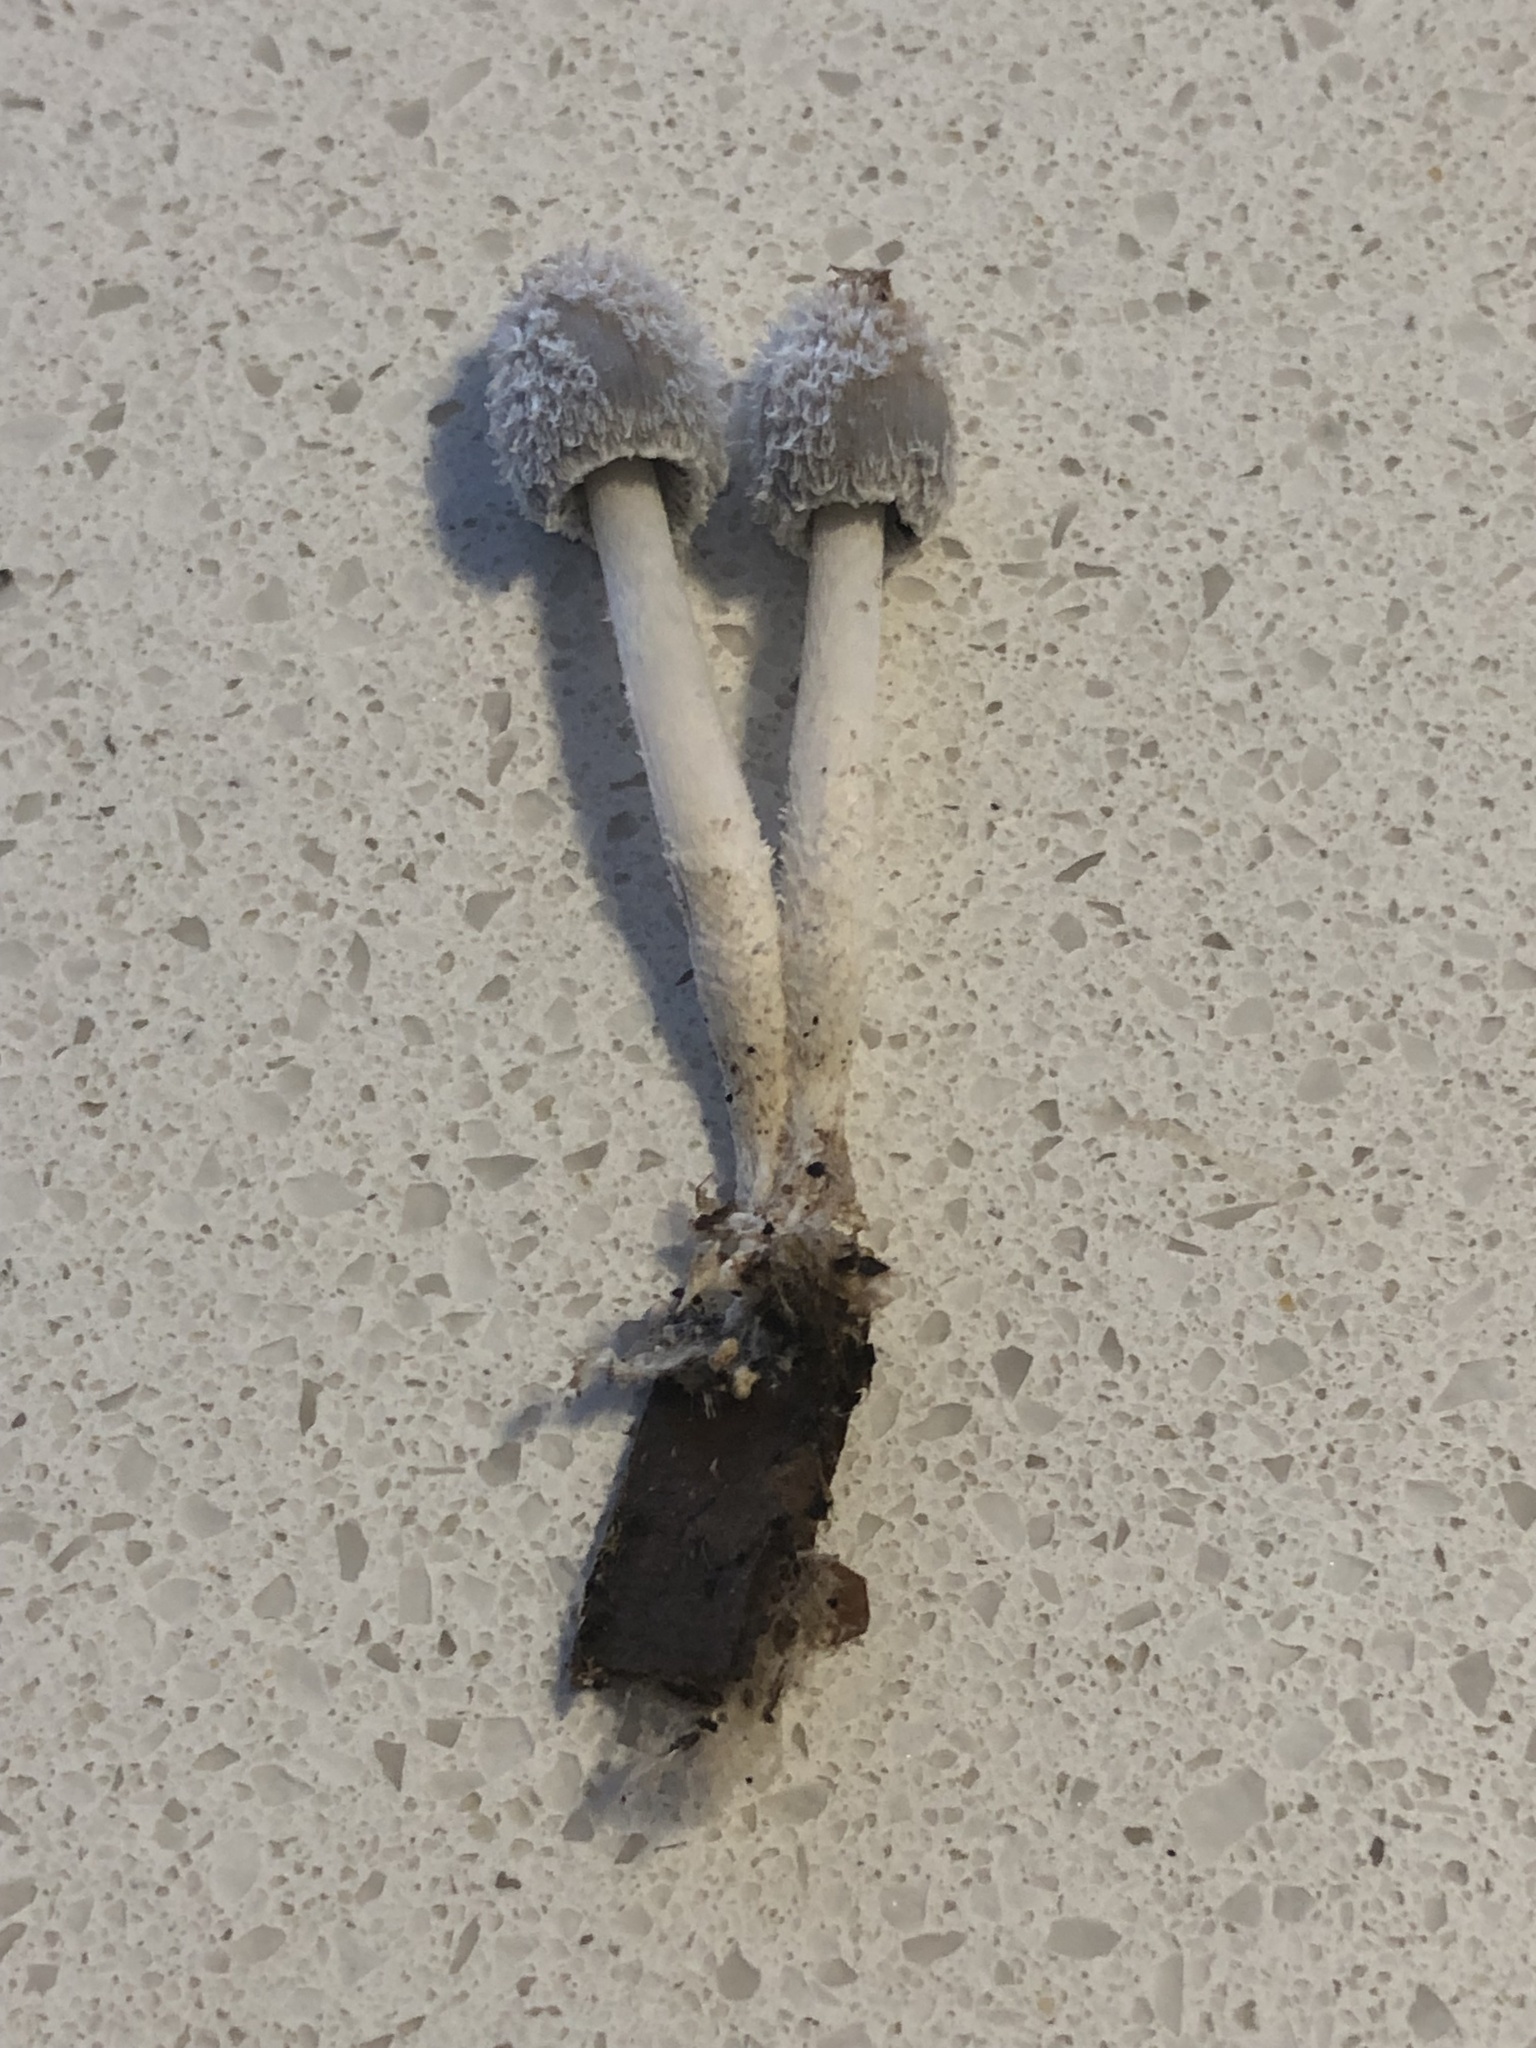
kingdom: Fungi
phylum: Basidiomycota
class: Agaricomycetes
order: Agaricales
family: Psathyrellaceae
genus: Coprinopsis
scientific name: Coprinopsis lagopus
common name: Hare'sfoot inkcap
